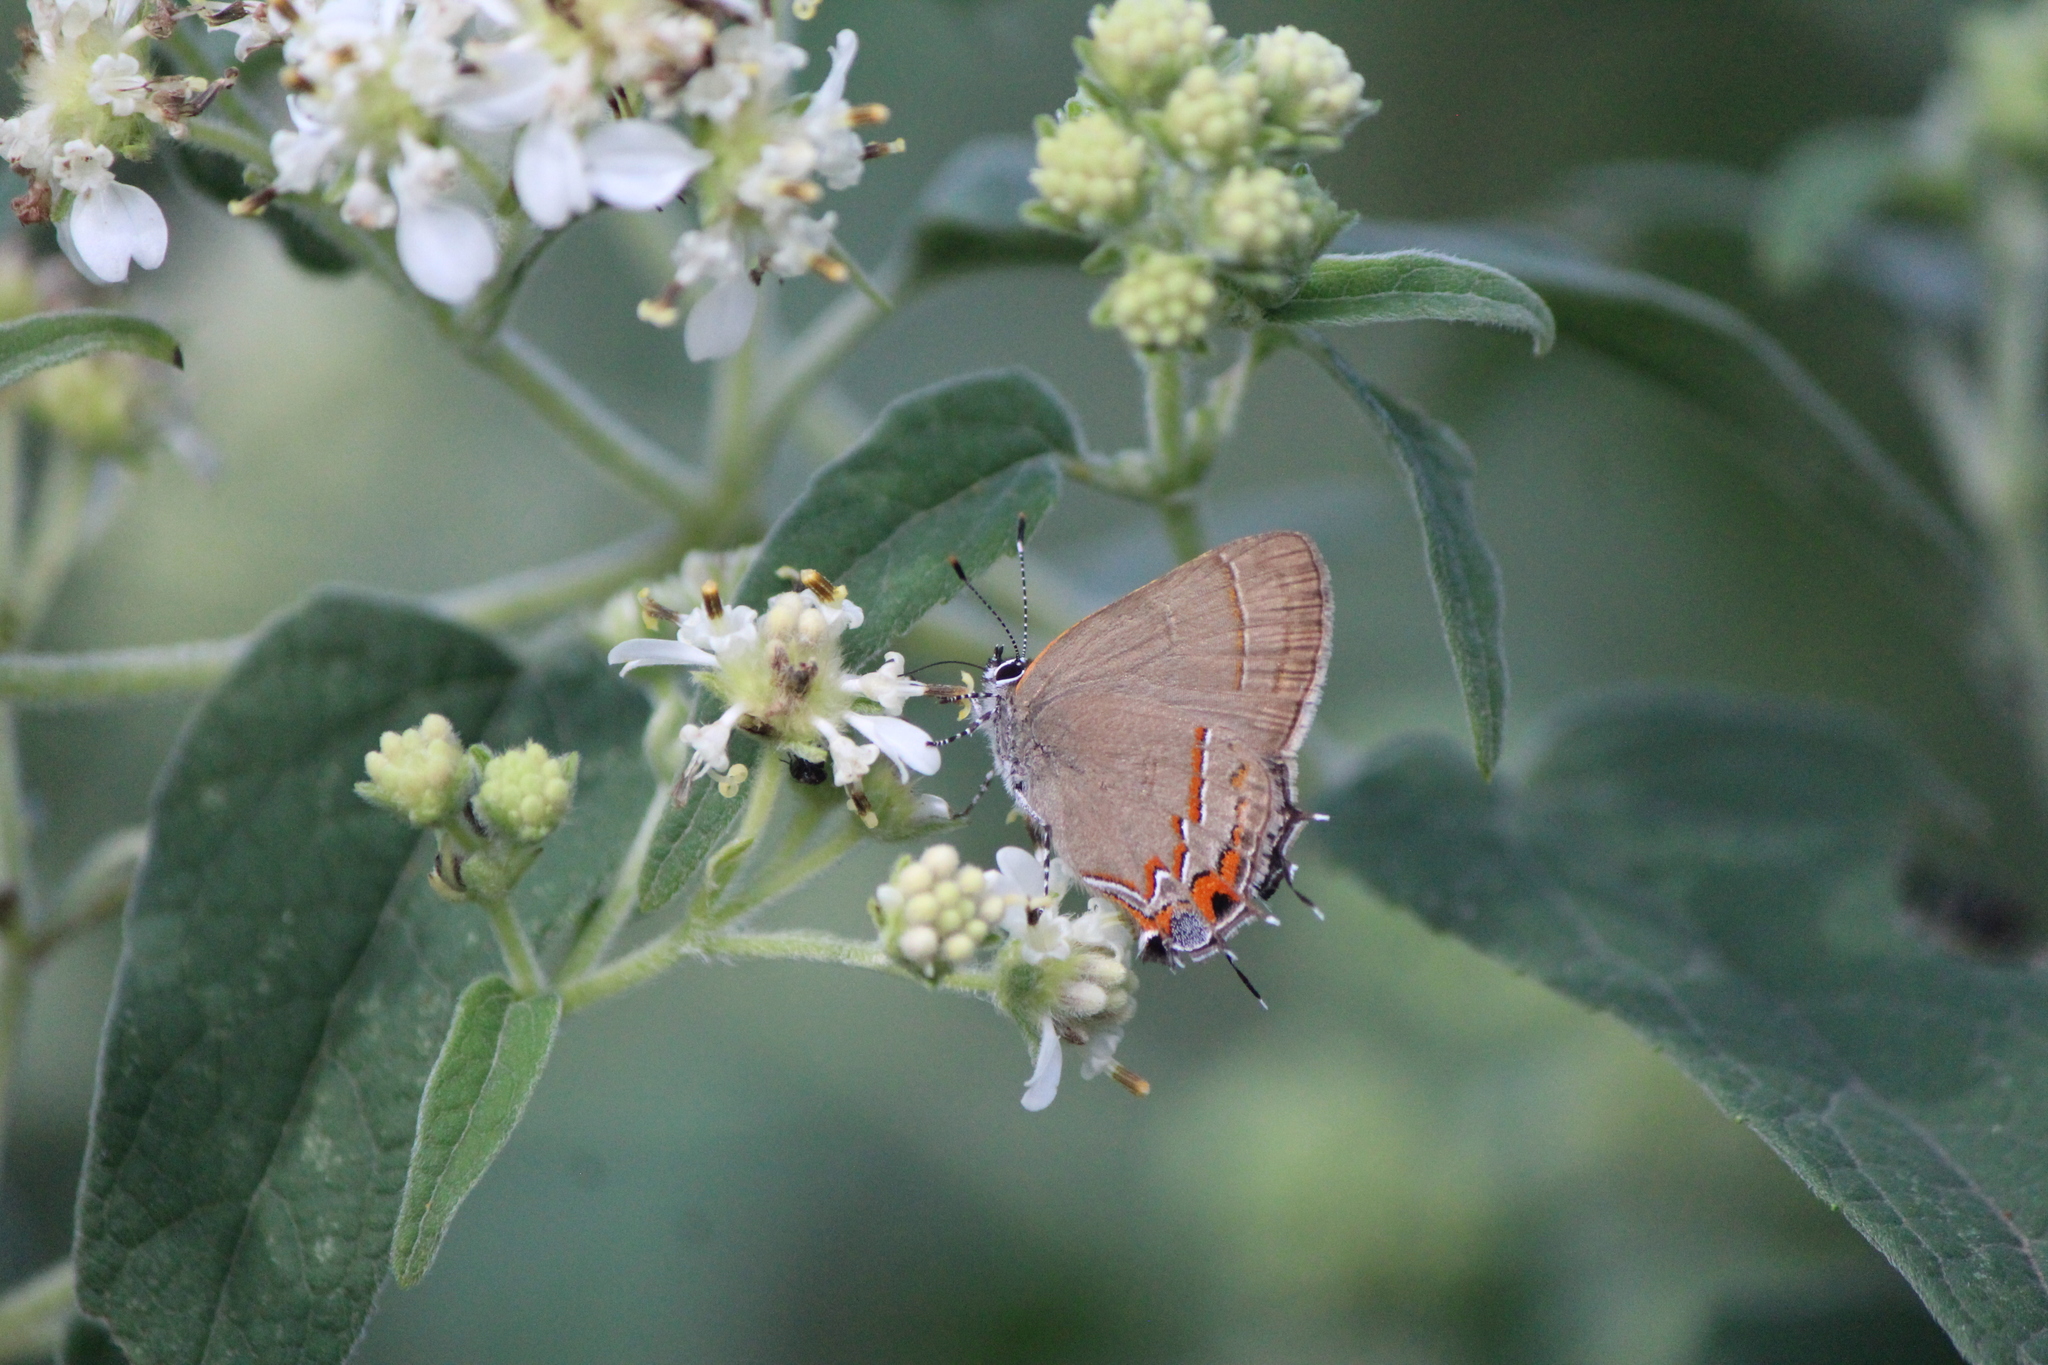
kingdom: Animalia
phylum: Arthropoda
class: Insecta
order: Lepidoptera
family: Lycaenidae
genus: Electrostrymon
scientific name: Electrostrymon
